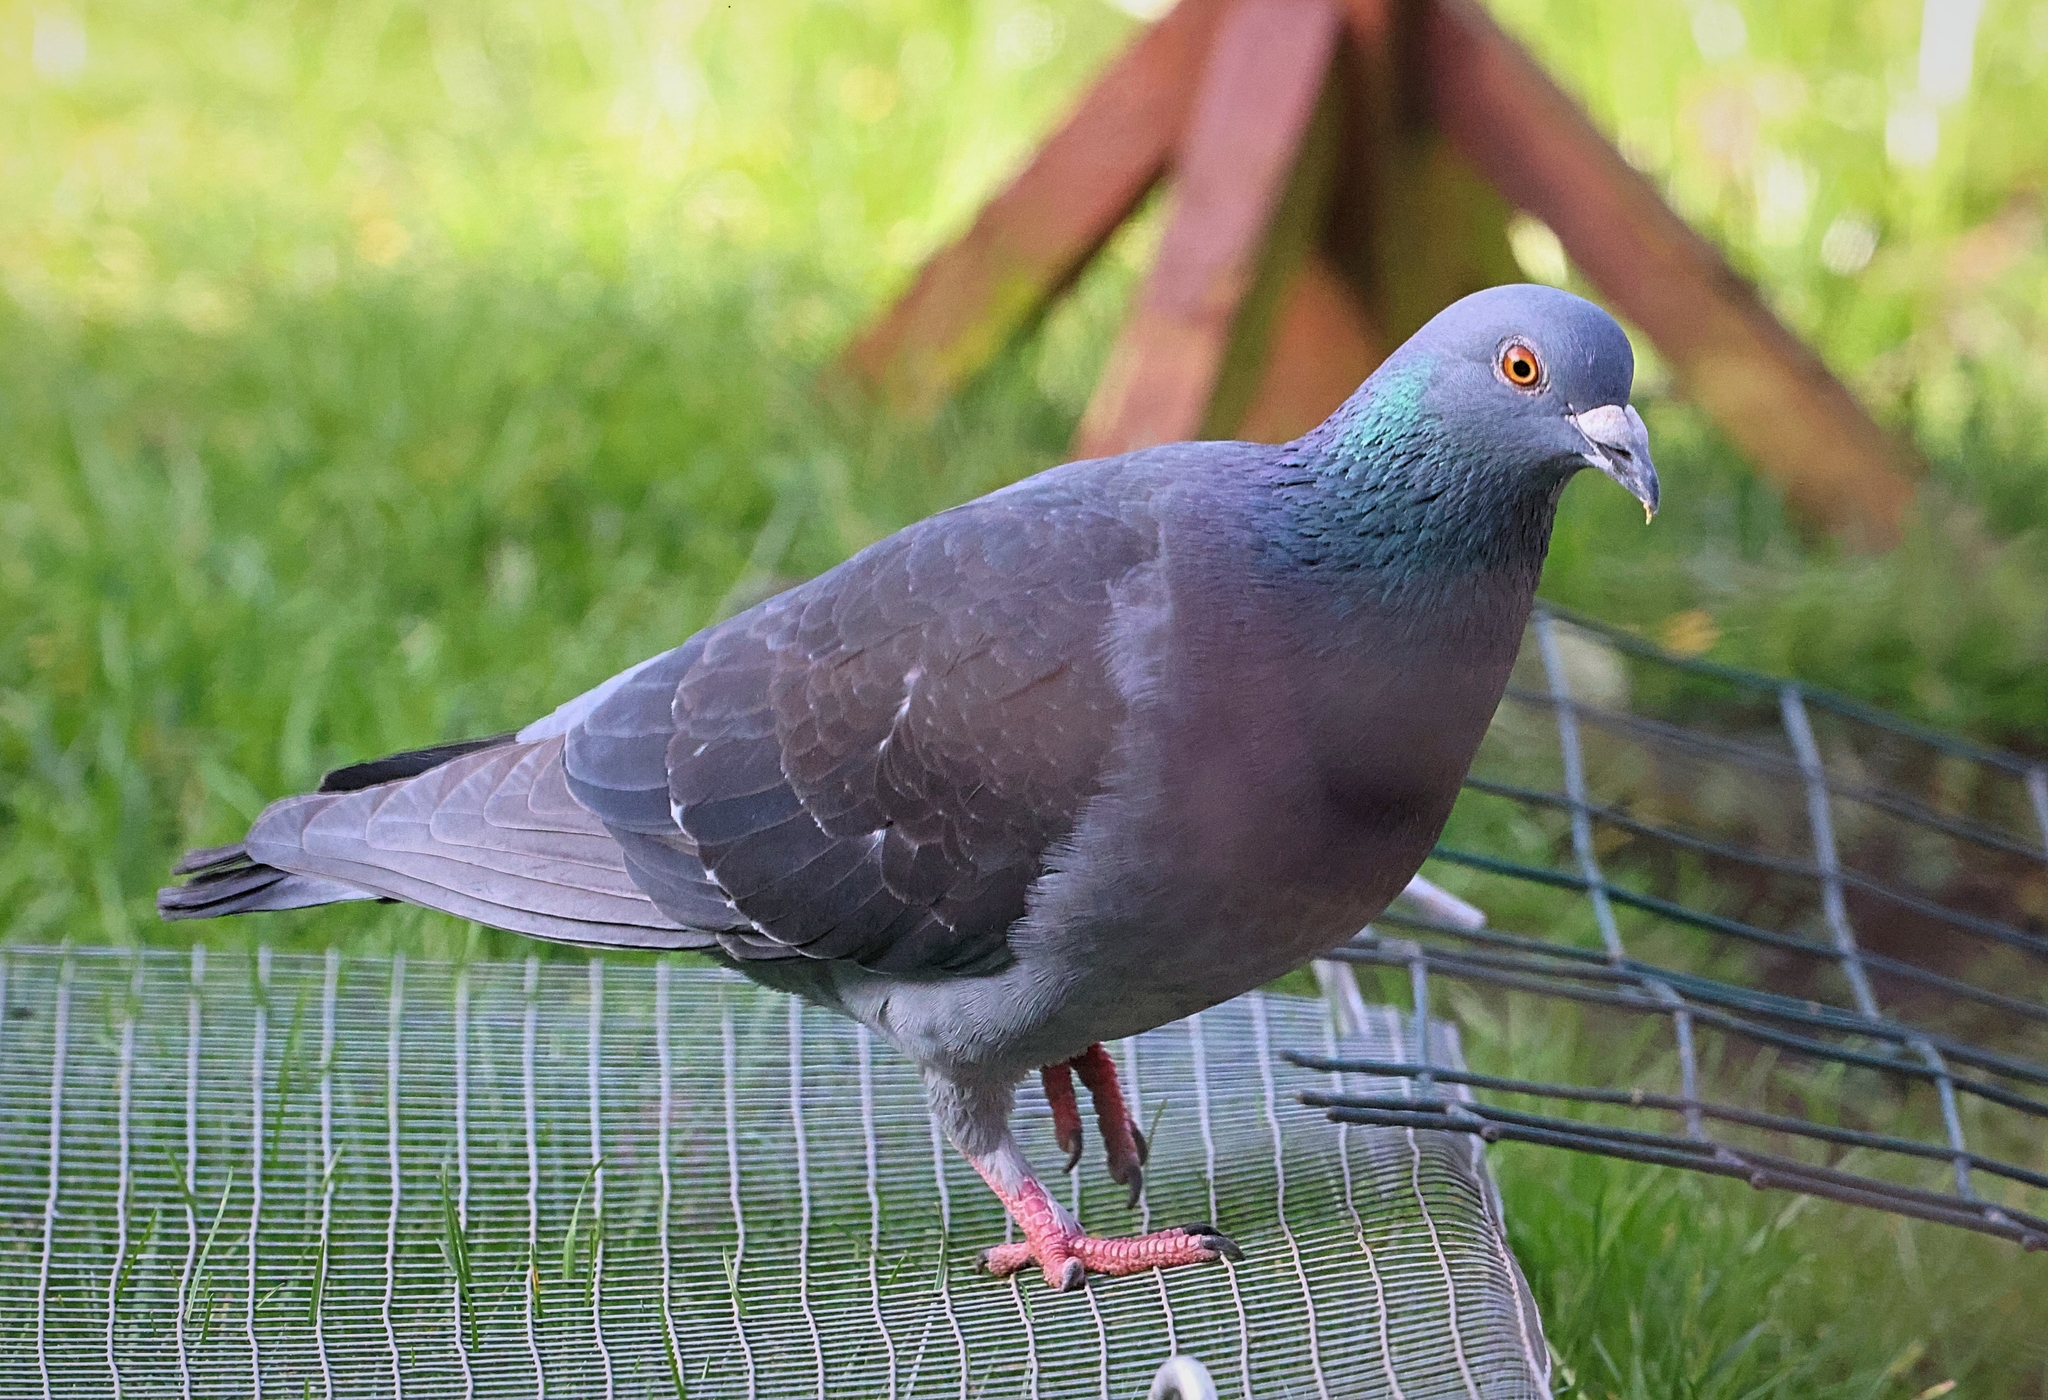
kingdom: Animalia
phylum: Chordata
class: Aves
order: Columbiformes
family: Columbidae
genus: Columba
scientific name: Columba livia
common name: Rock pigeon
